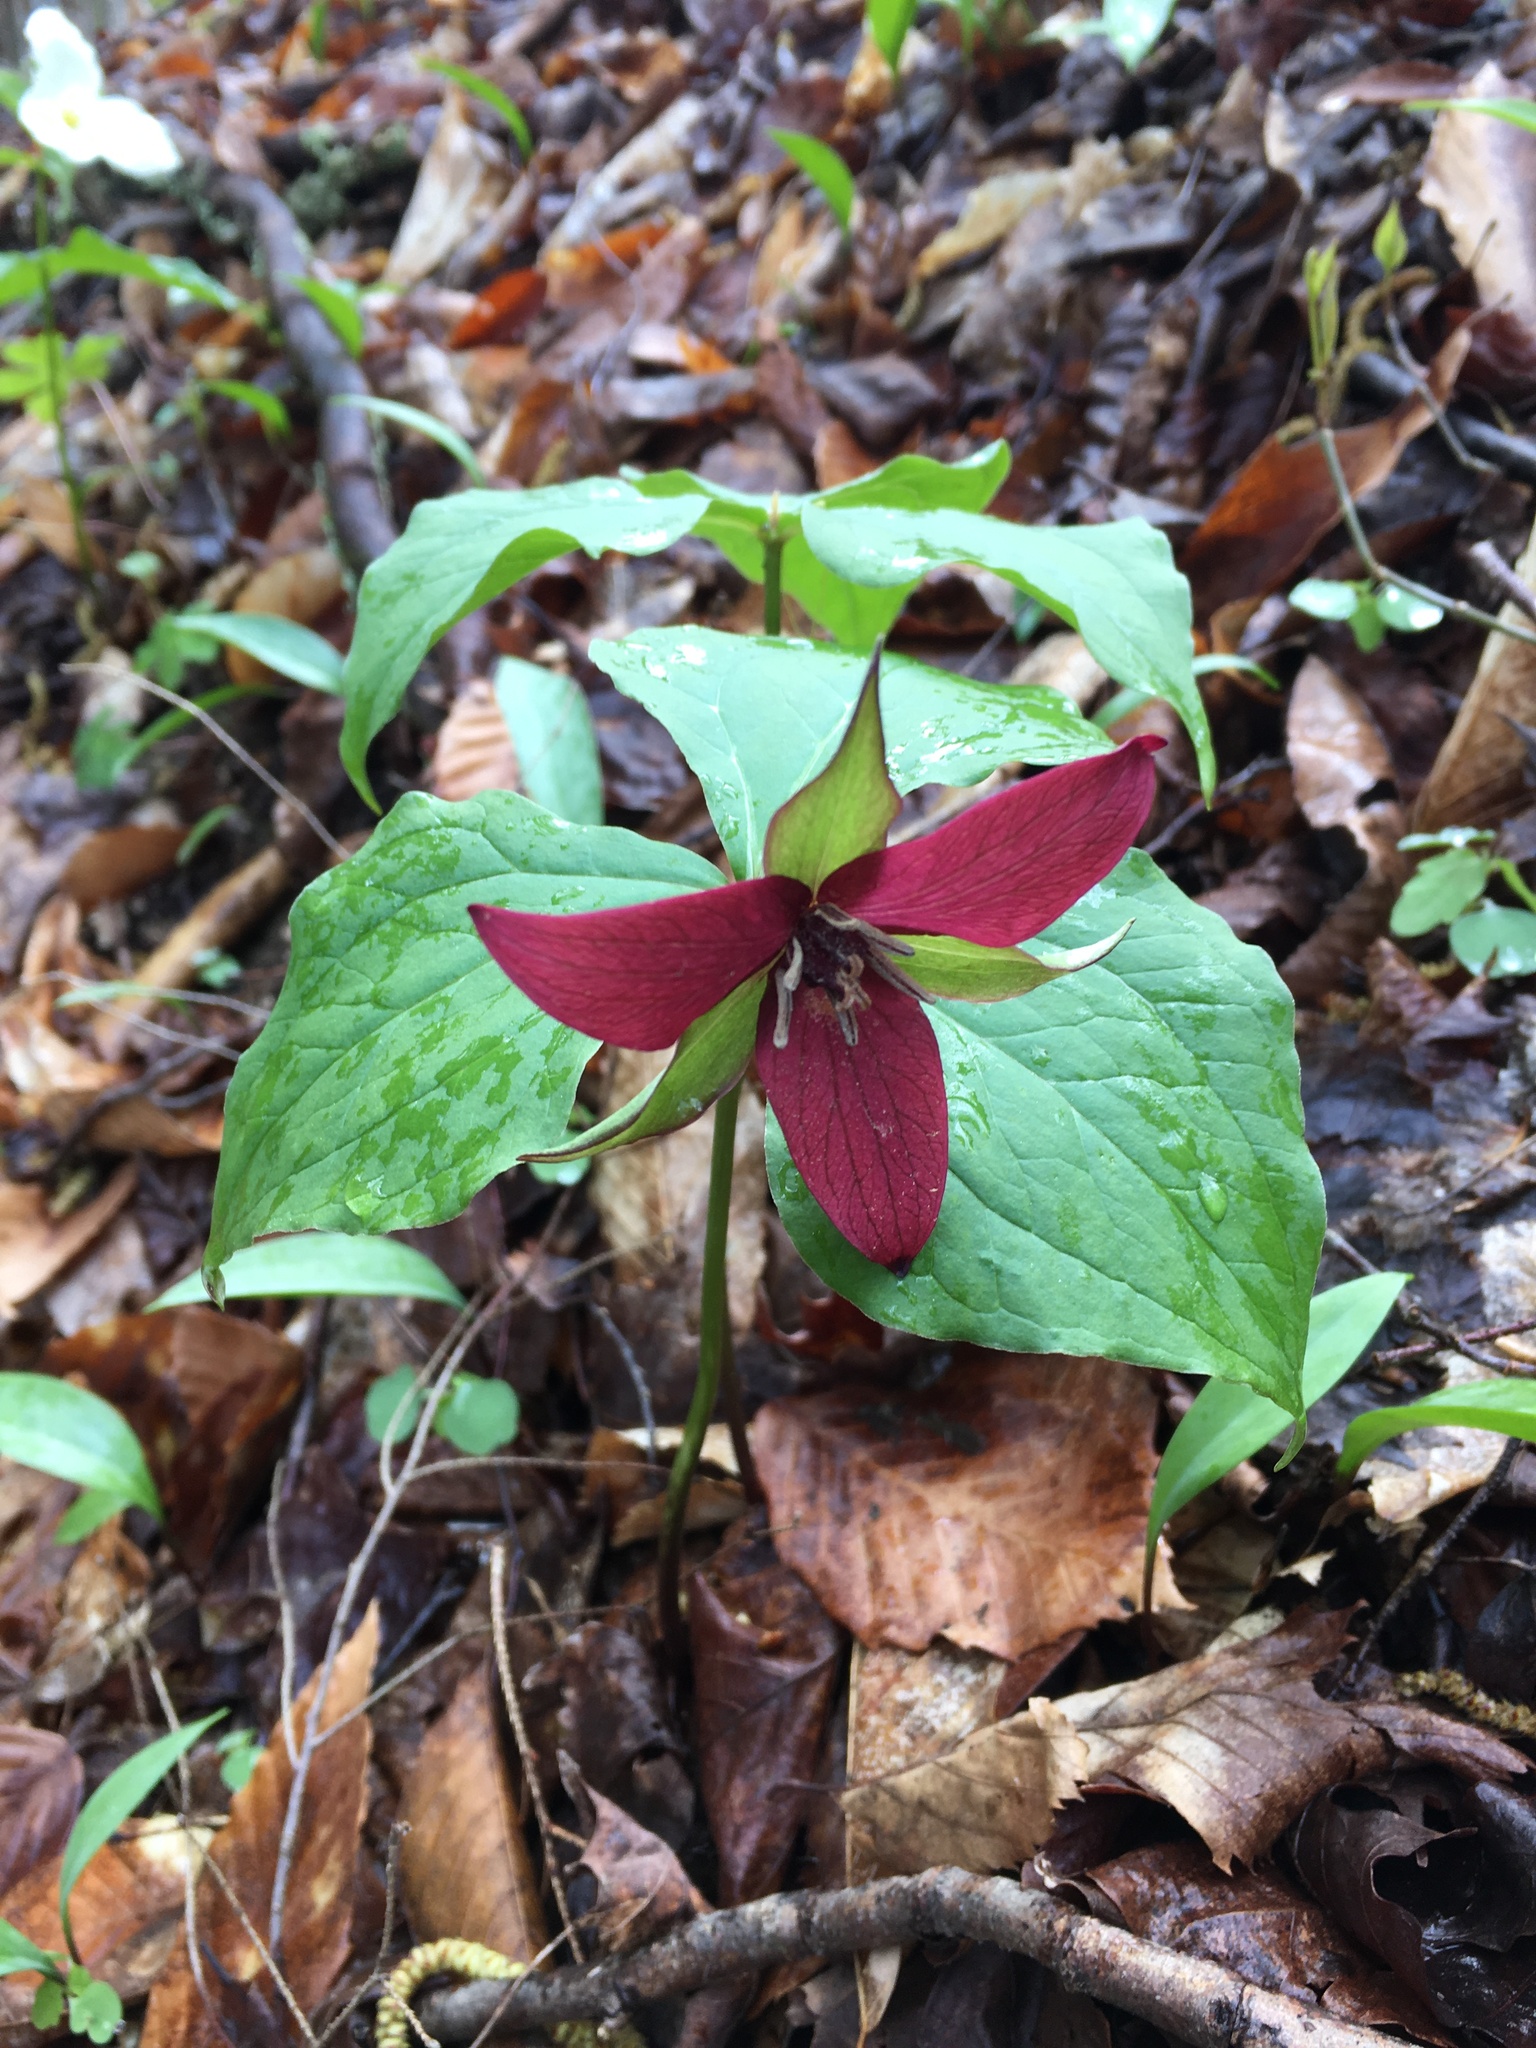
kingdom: Plantae
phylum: Tracheophyta
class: Liliopsida
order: Liliales
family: Melanthiaceae
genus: Trillium
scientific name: Trillium erectum
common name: Purple trillium
